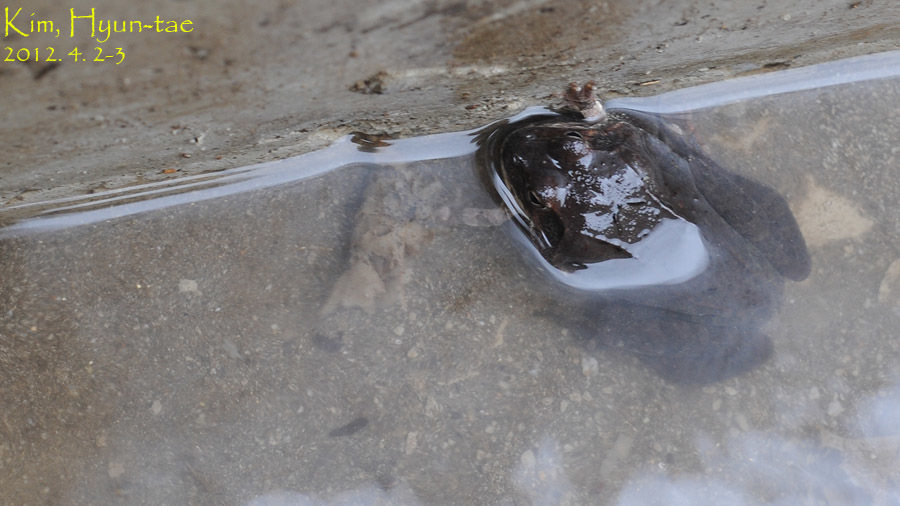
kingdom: Animalia
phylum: Chordata
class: Amphibia
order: Anura
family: Ranidae
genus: Rana
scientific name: Rana uenoi
